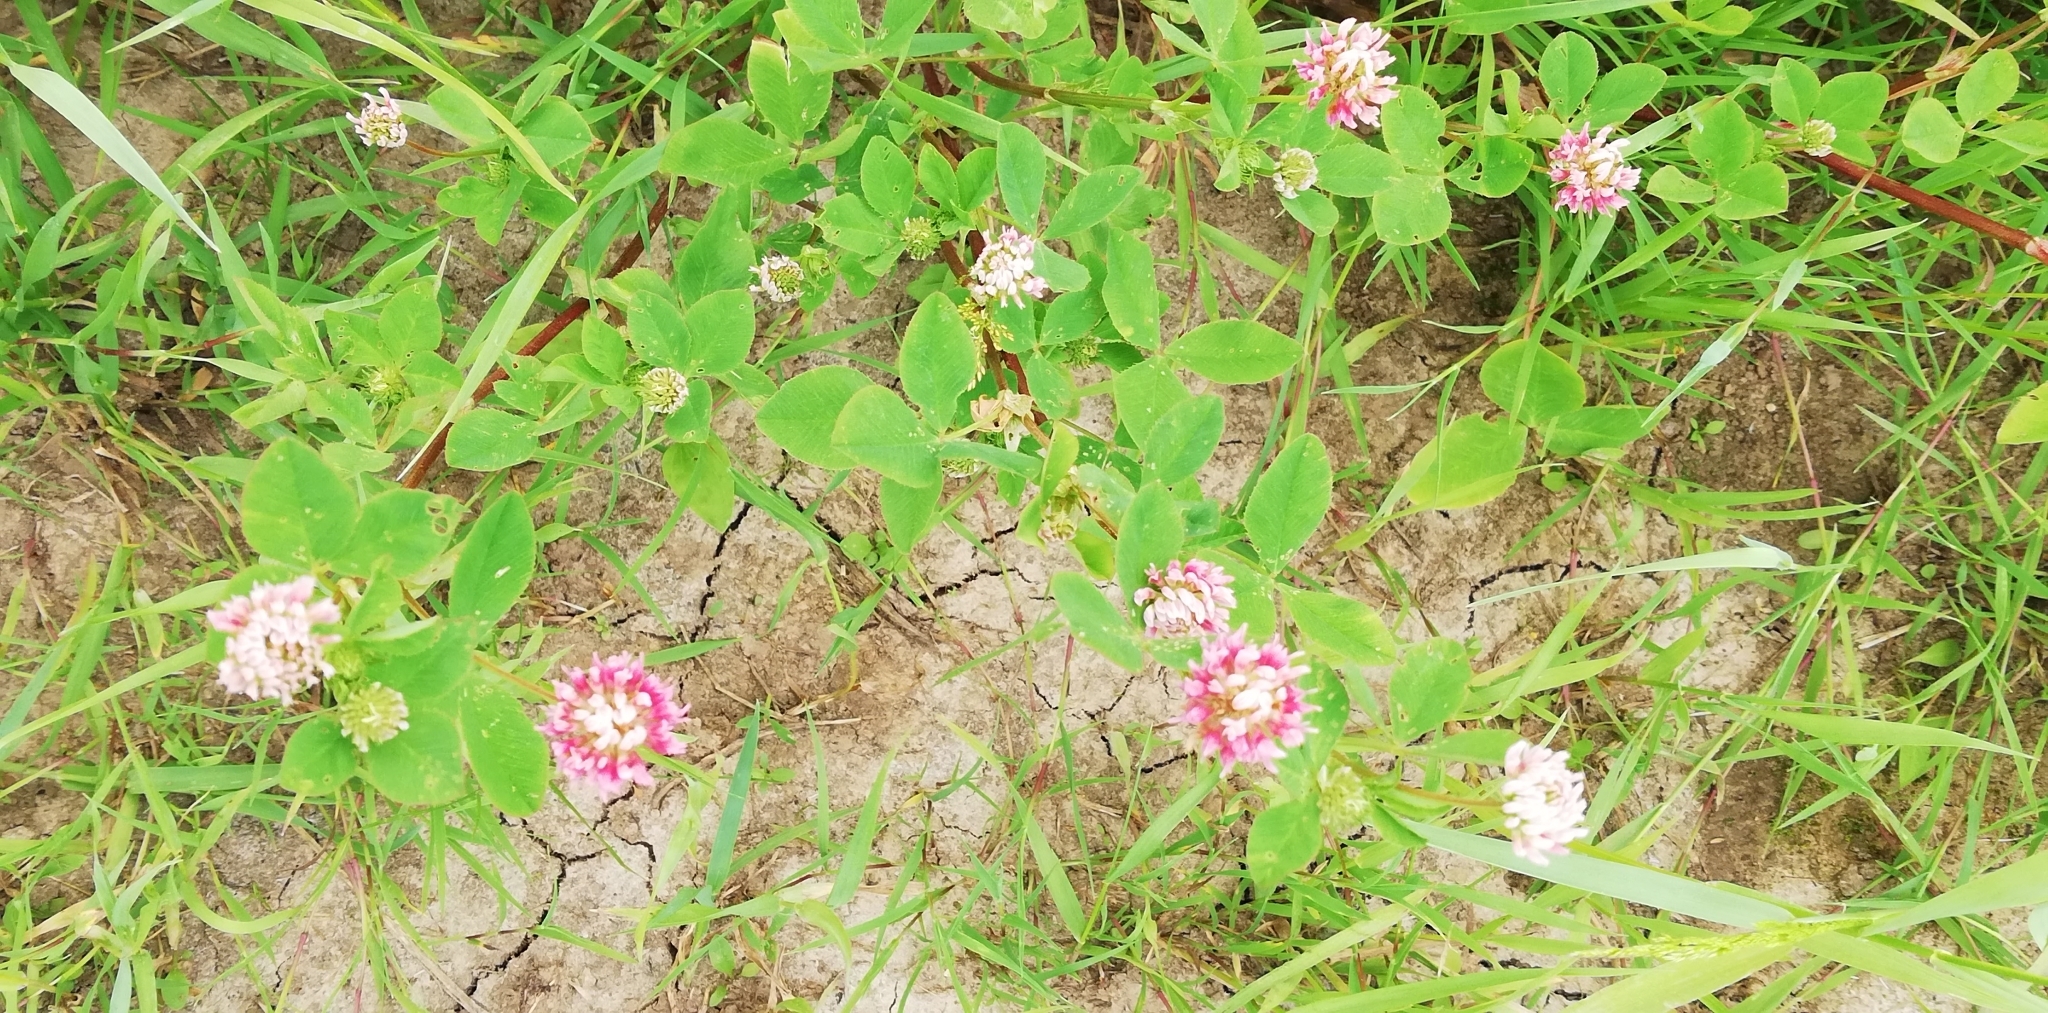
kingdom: Plantae
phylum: Tracheophyta
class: Magnoliopsida
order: Fabales
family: Fabaceae
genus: Trifolium
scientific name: Trifolium hybridum
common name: Alsike clover
